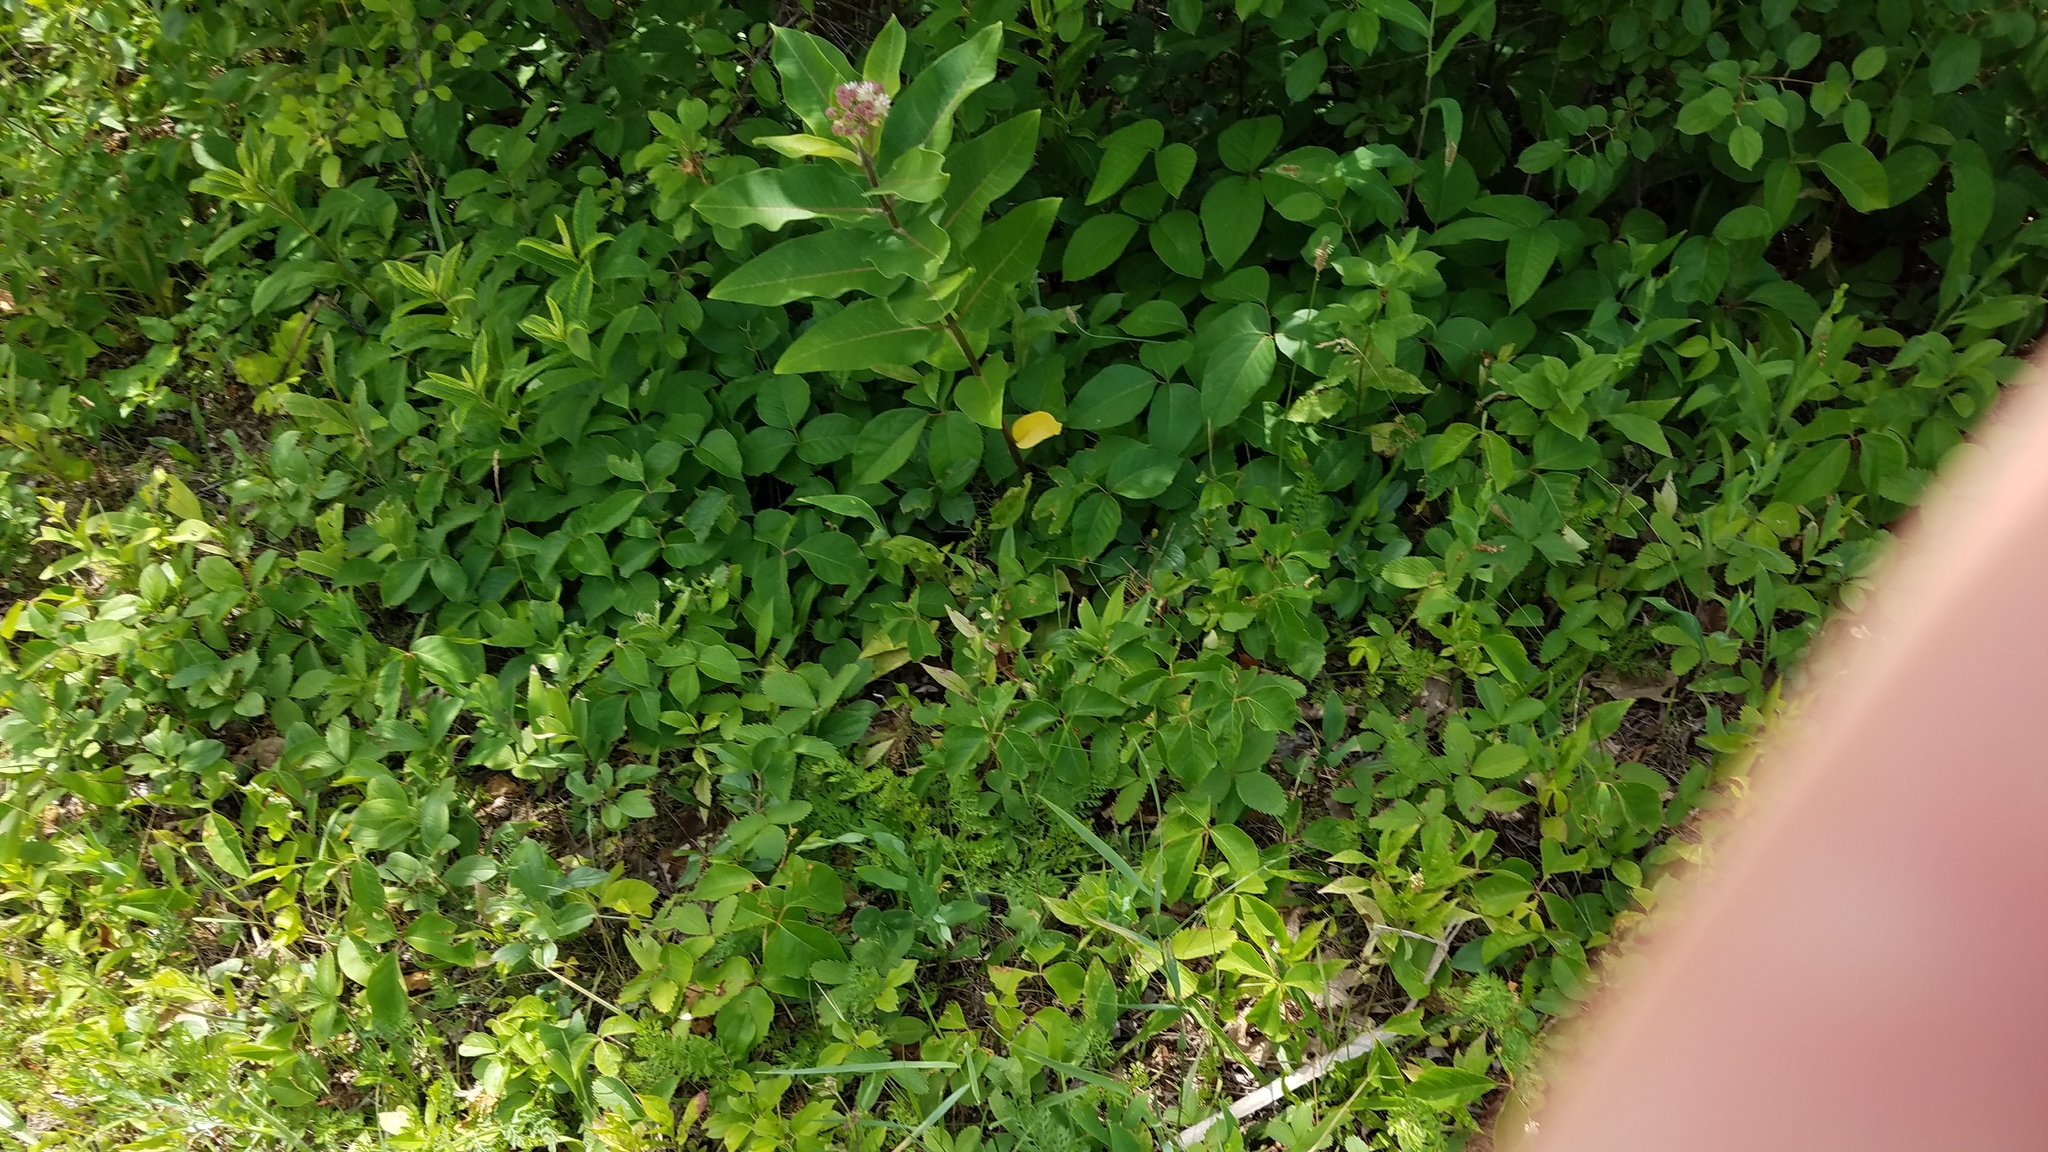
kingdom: Plantae
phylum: Tracheophyta
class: Magnoliopsida
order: Gentianales
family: Apocynaceae
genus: Asclepias
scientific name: Asclepias syriaca
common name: Common milkweed
